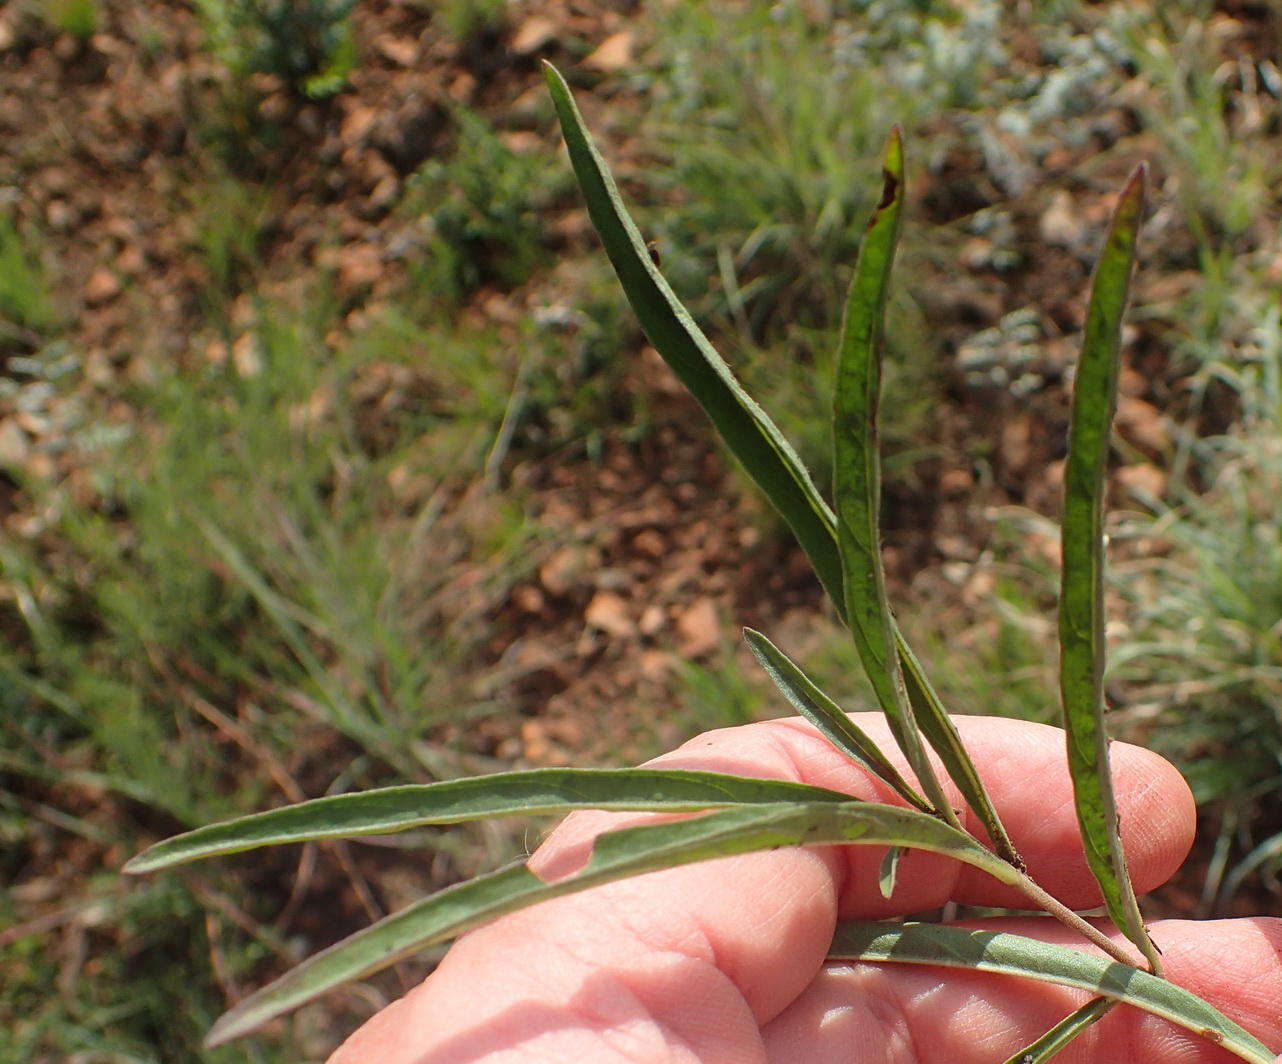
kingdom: Plantae
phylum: Tracheophyta
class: Magnoliopsida
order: Lamiales
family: Acanthaceae
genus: Crabbea
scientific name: Crabbea cirsioides
